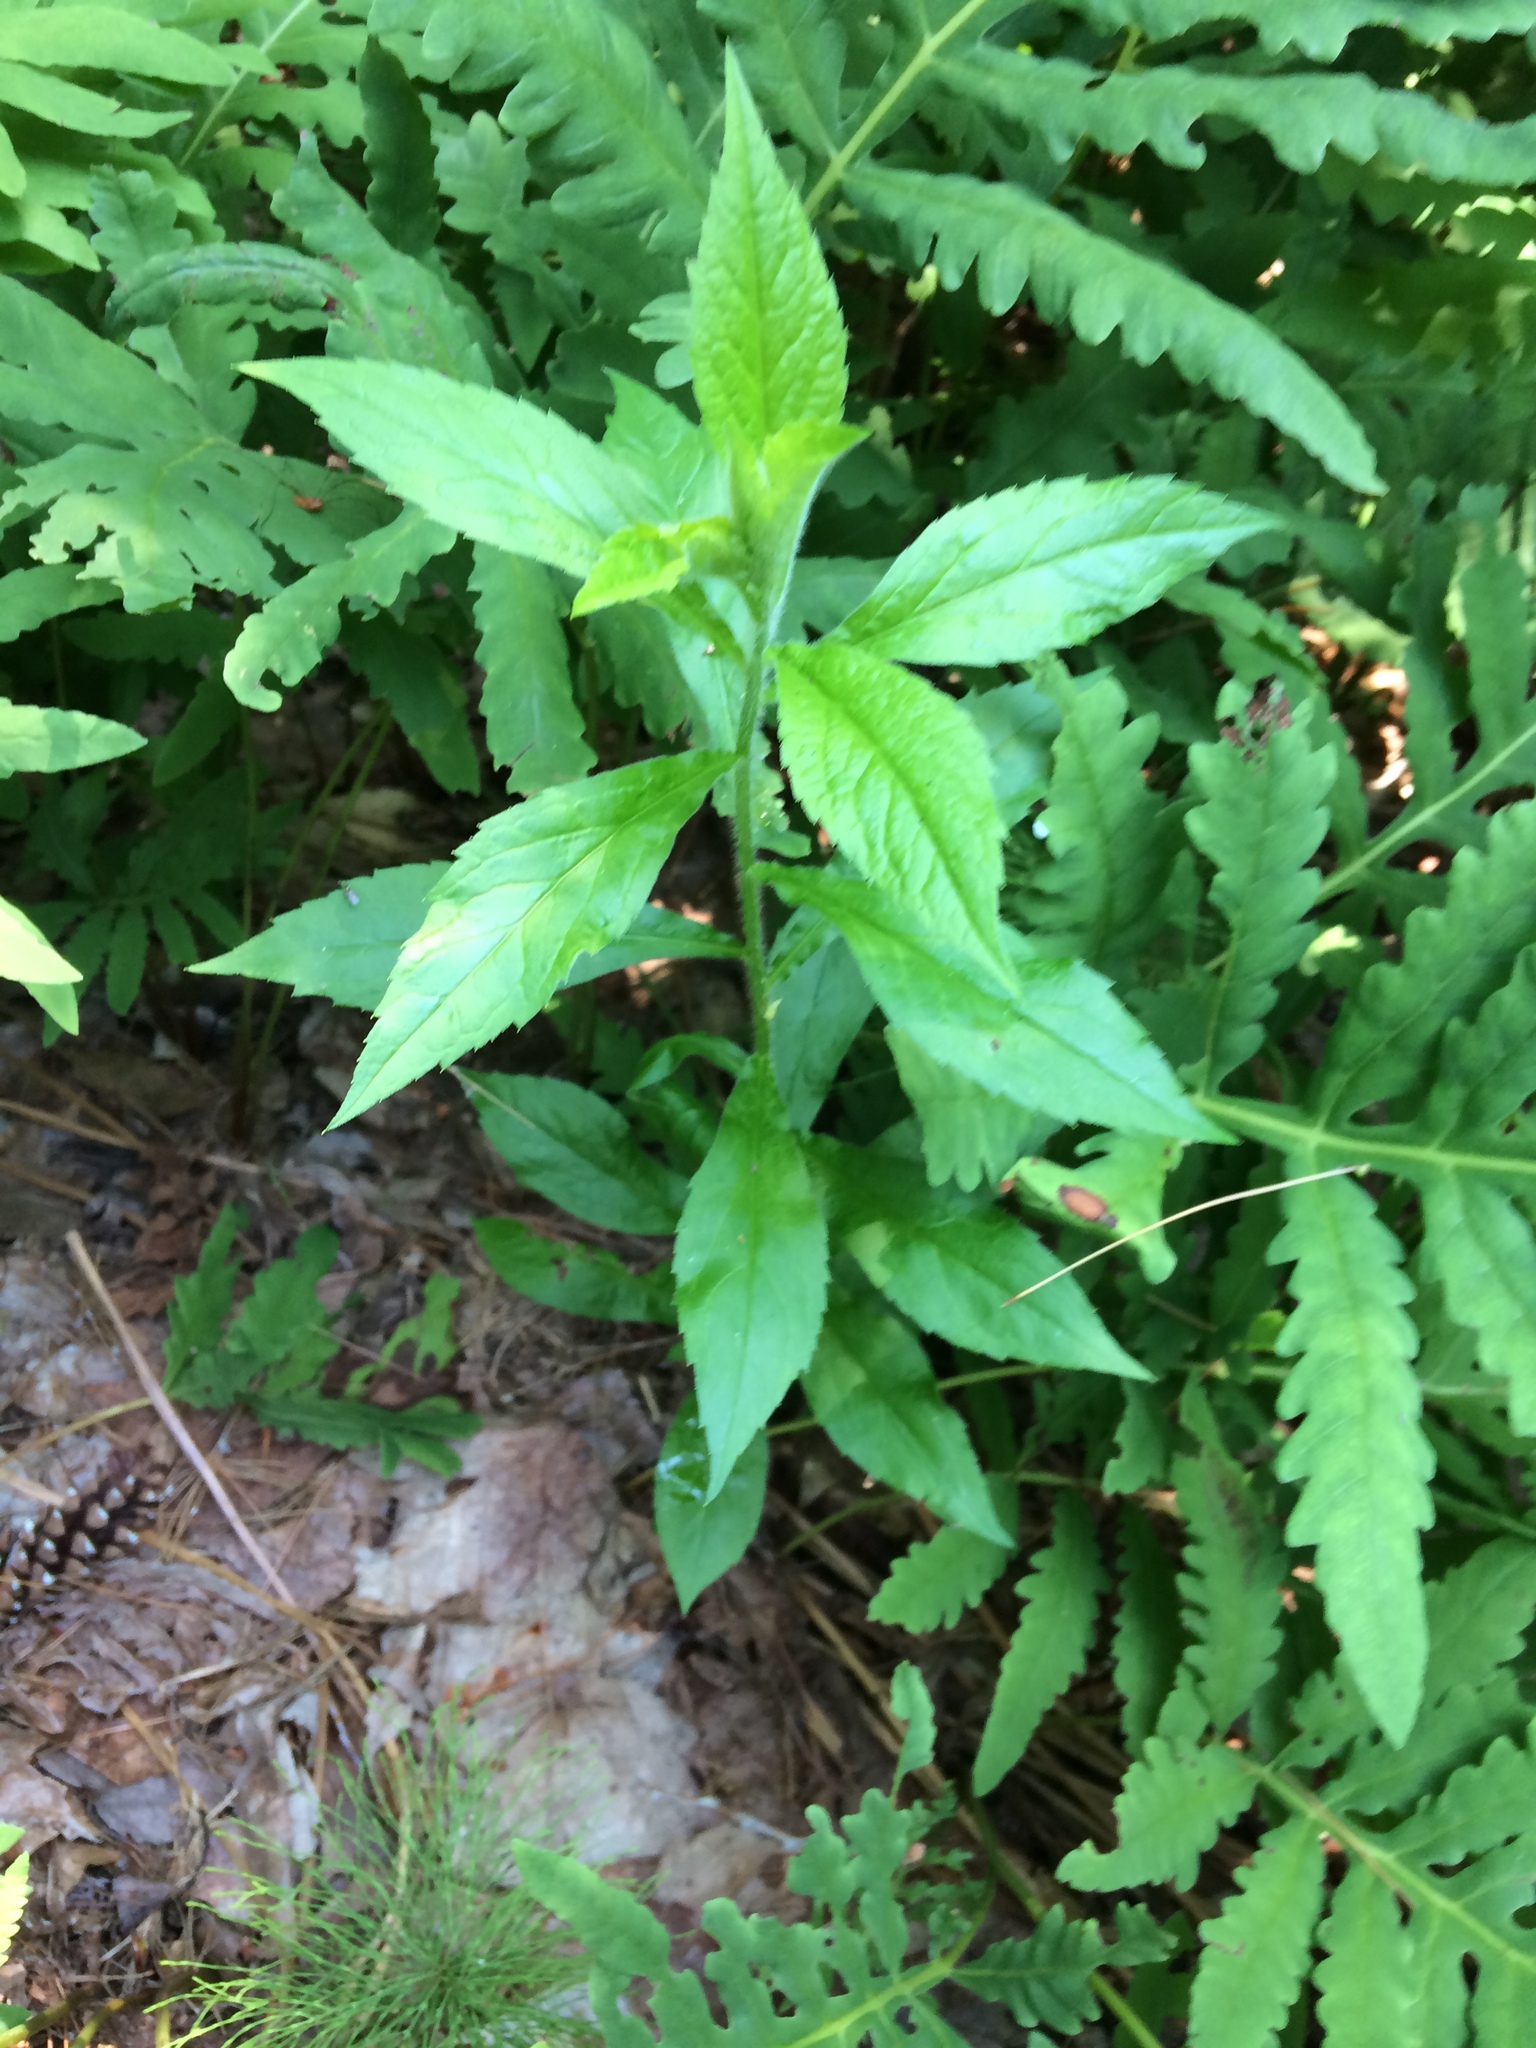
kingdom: Plantae
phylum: Tracheophyta
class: Magnoliopsida
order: Asterales
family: Asteraceae
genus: Solidago
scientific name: Solidago rugosa
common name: Rough-stemmed goldenrod
